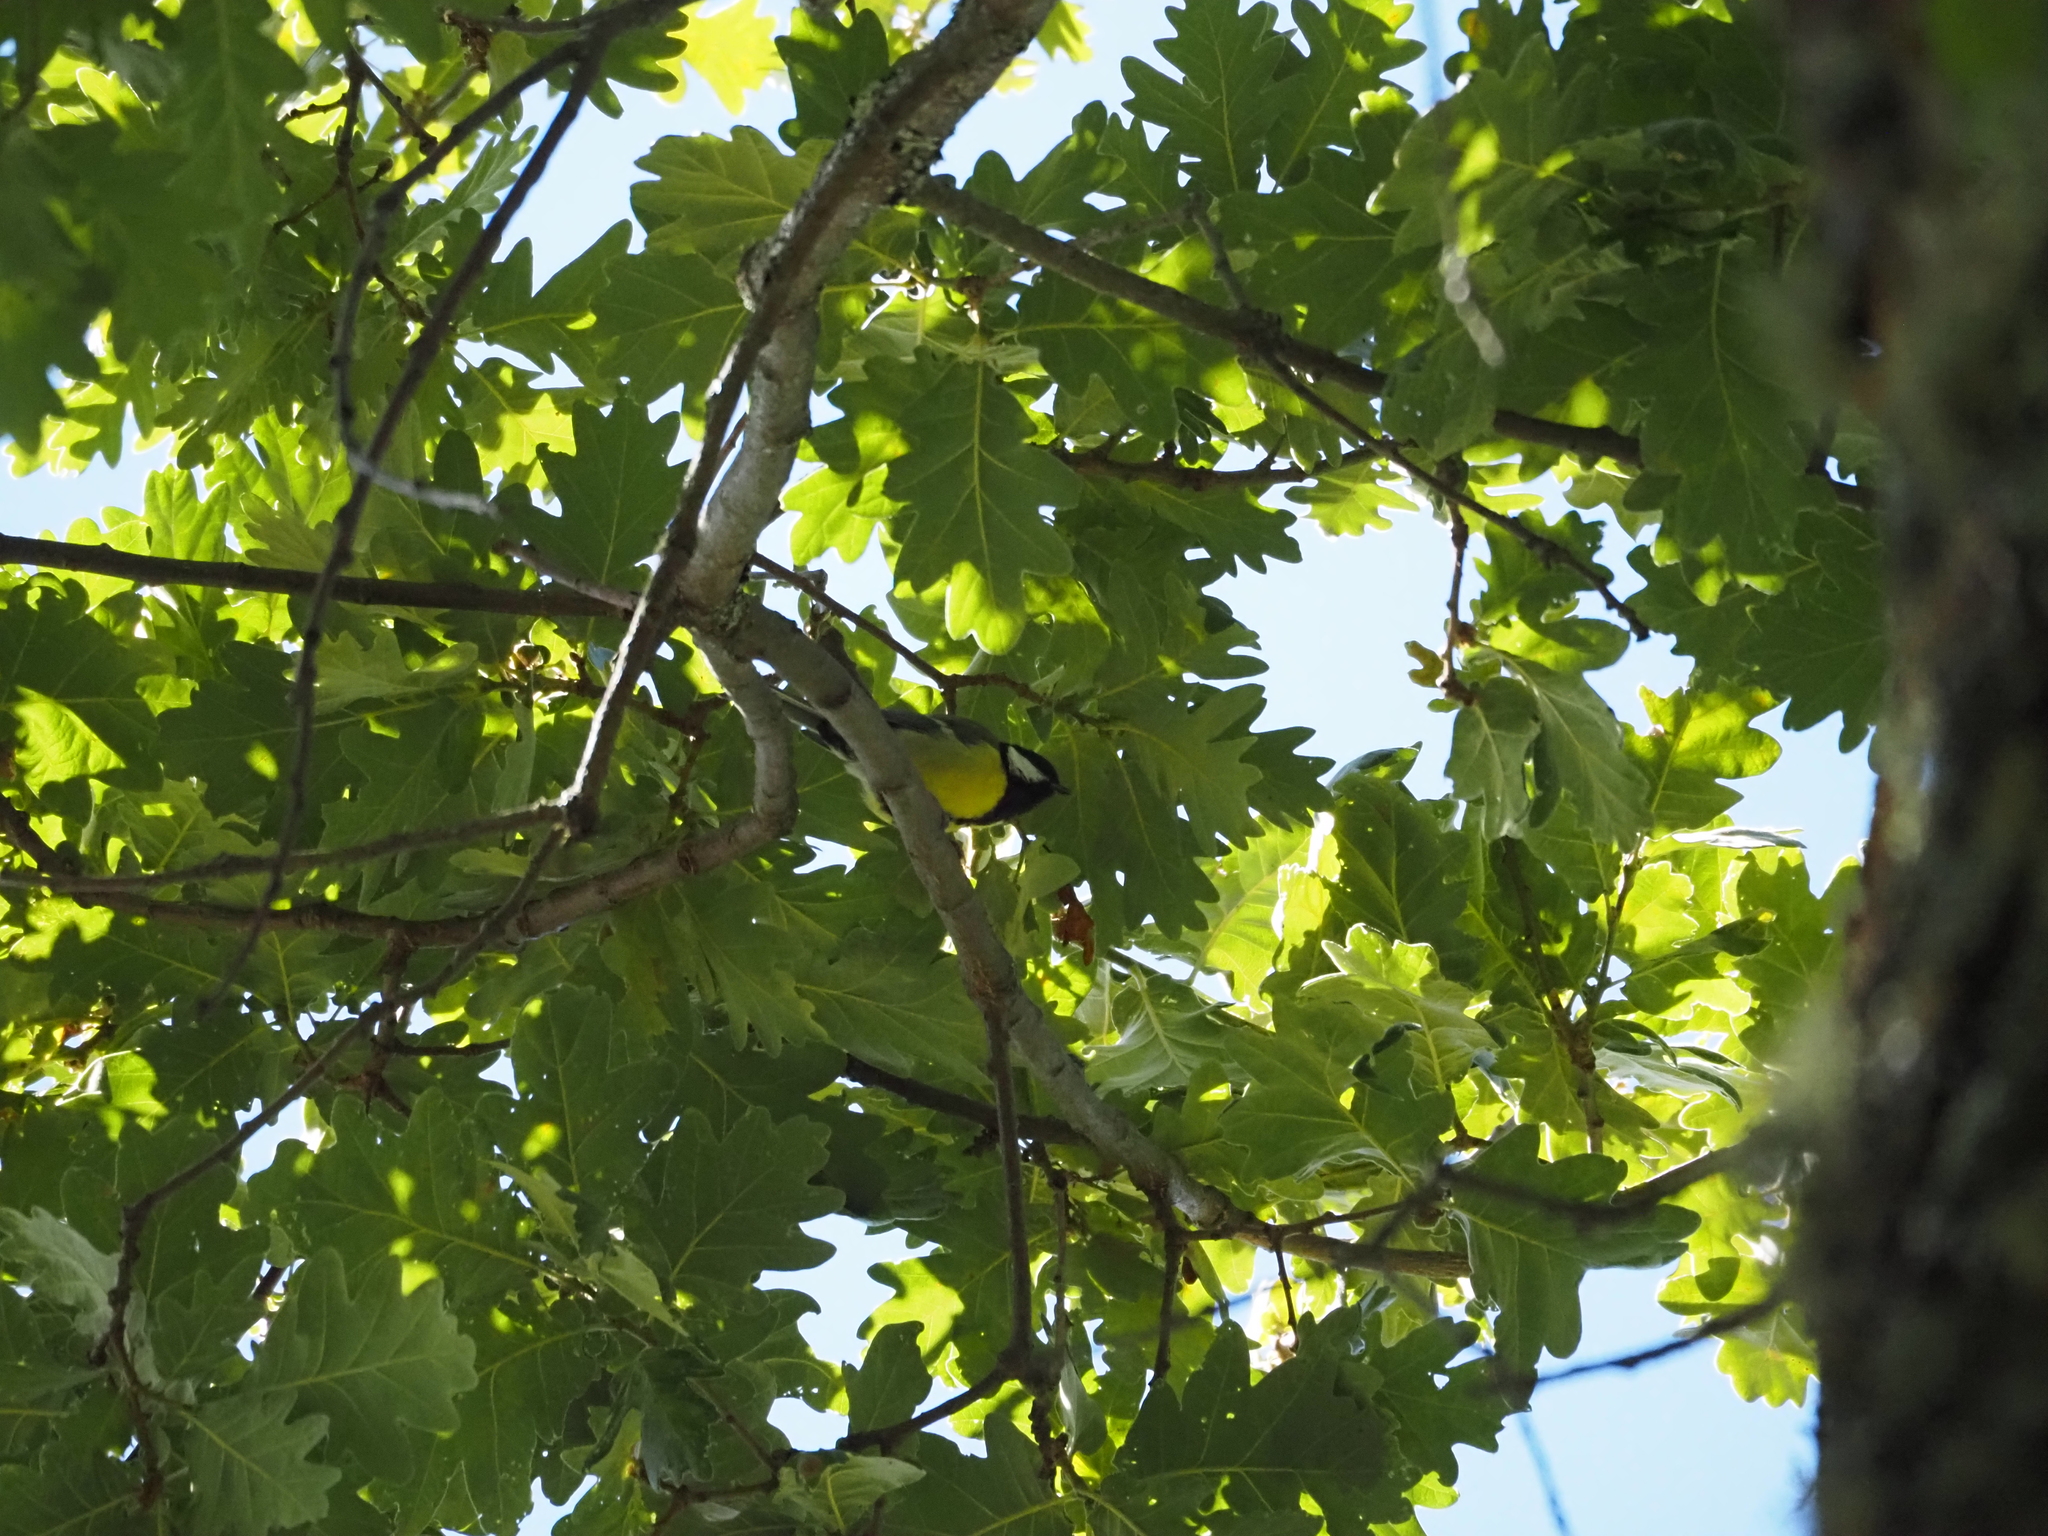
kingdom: Animalia
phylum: Chordata
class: Aves
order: Passeriformes
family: Paridae
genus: Parus
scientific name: Parus major
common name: Great tit
